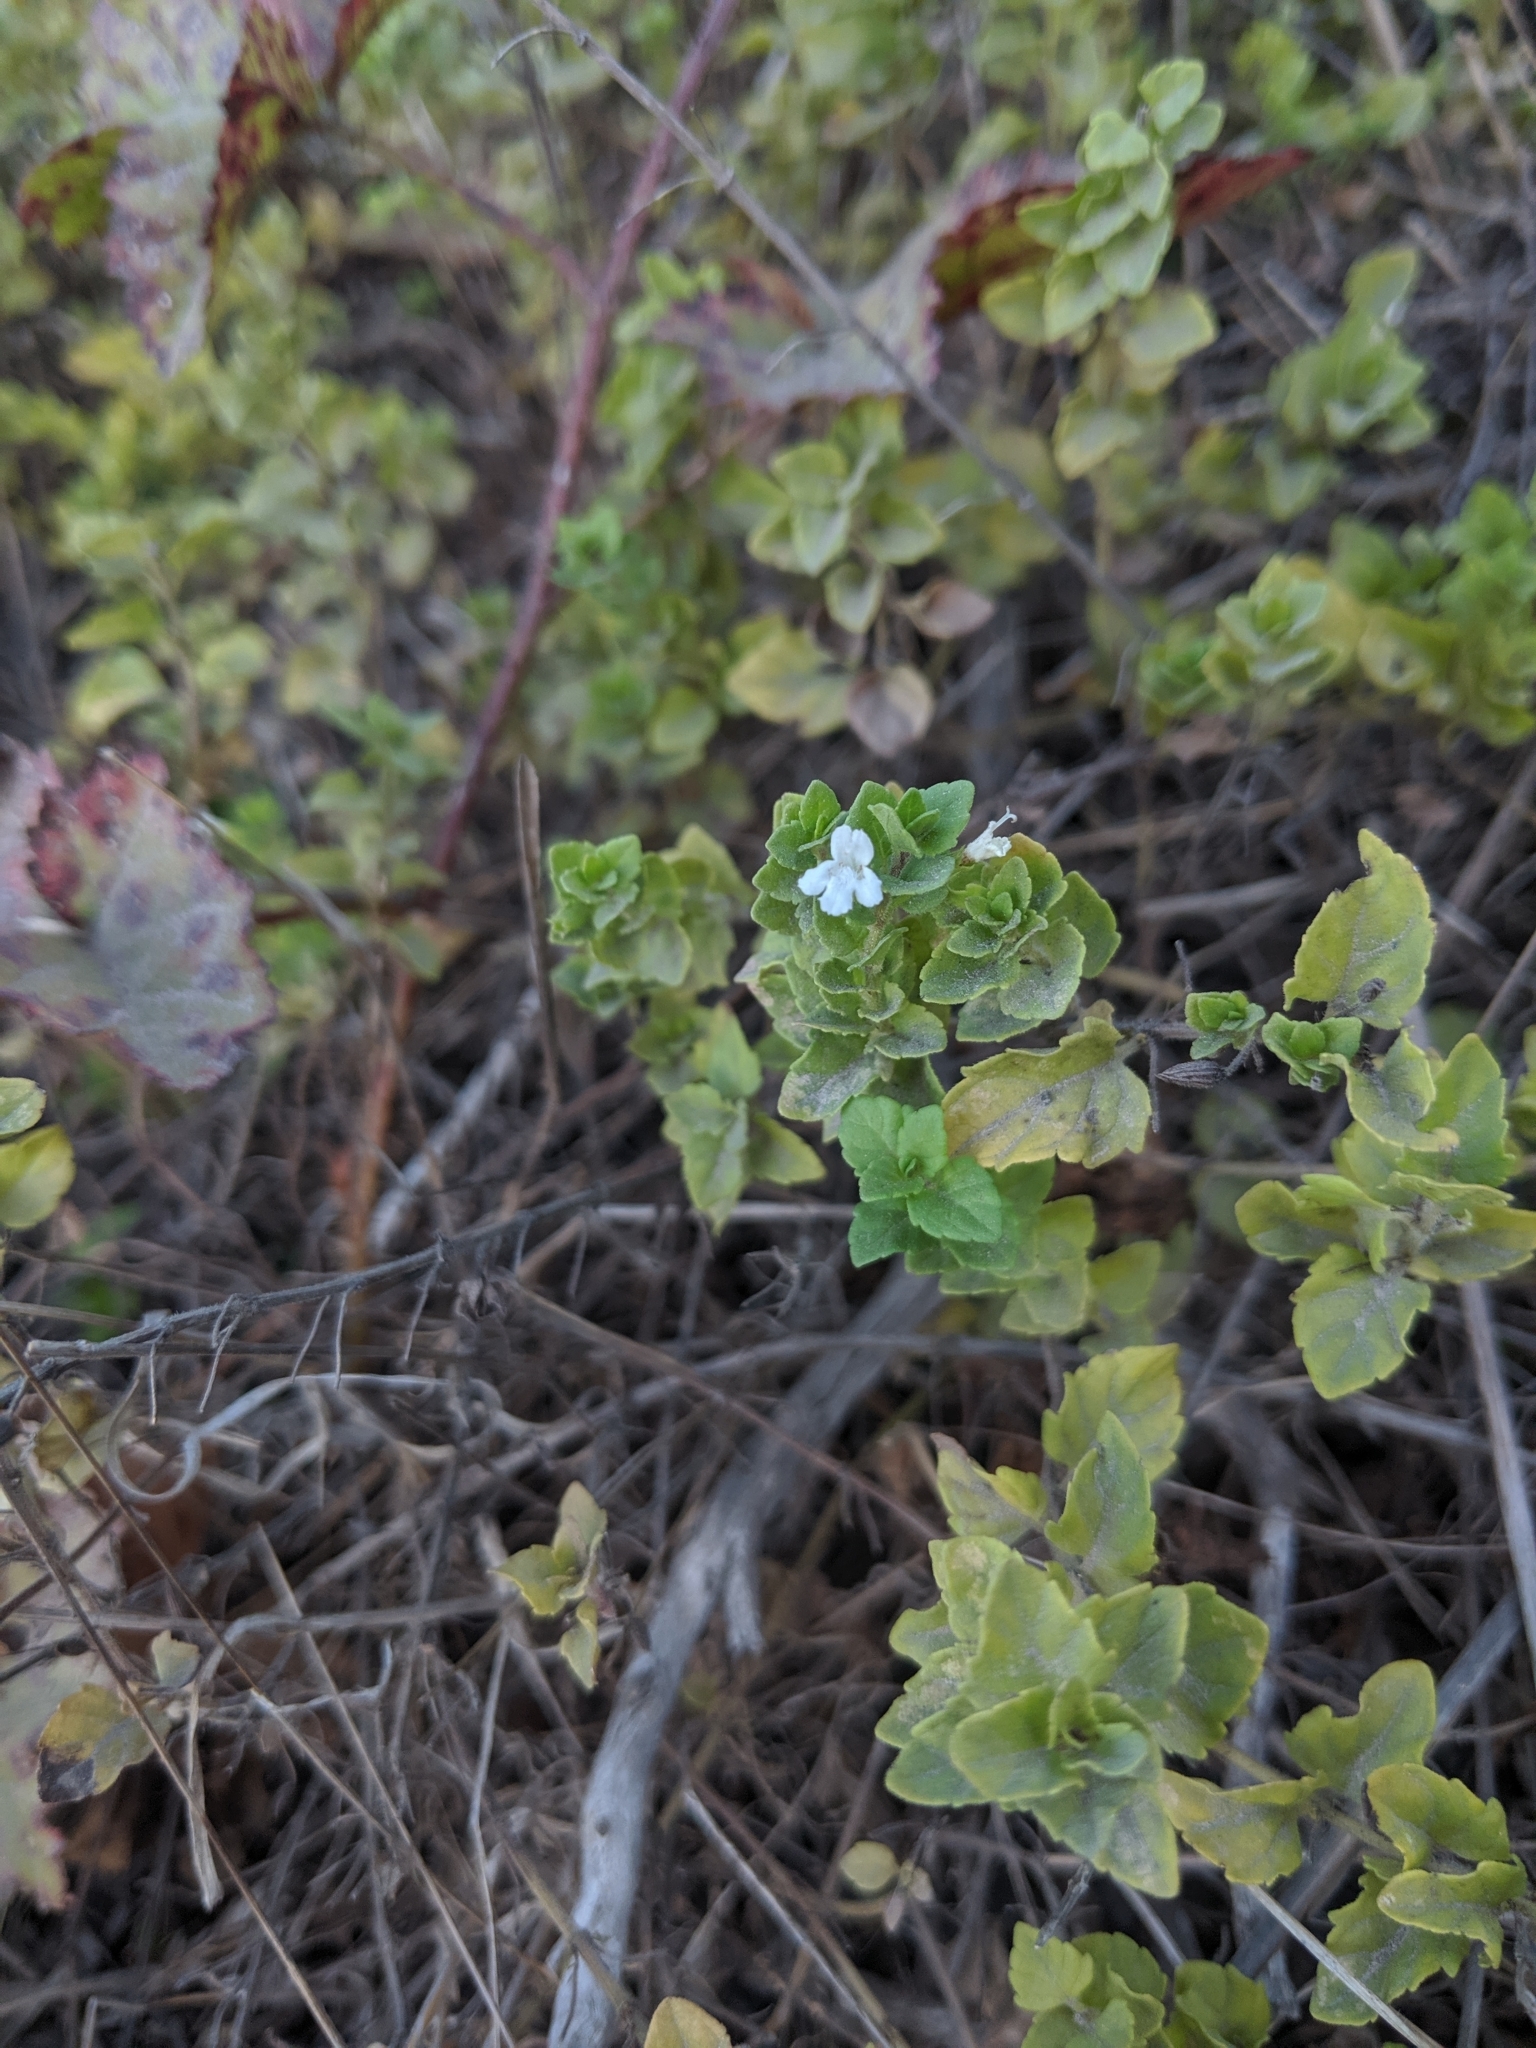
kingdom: Plantae
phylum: Tracheophyta
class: Magnoliopsida
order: Lamiales
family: Lamiaceae
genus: Micromeria
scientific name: Micromeria douglasii
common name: Yerba buena
